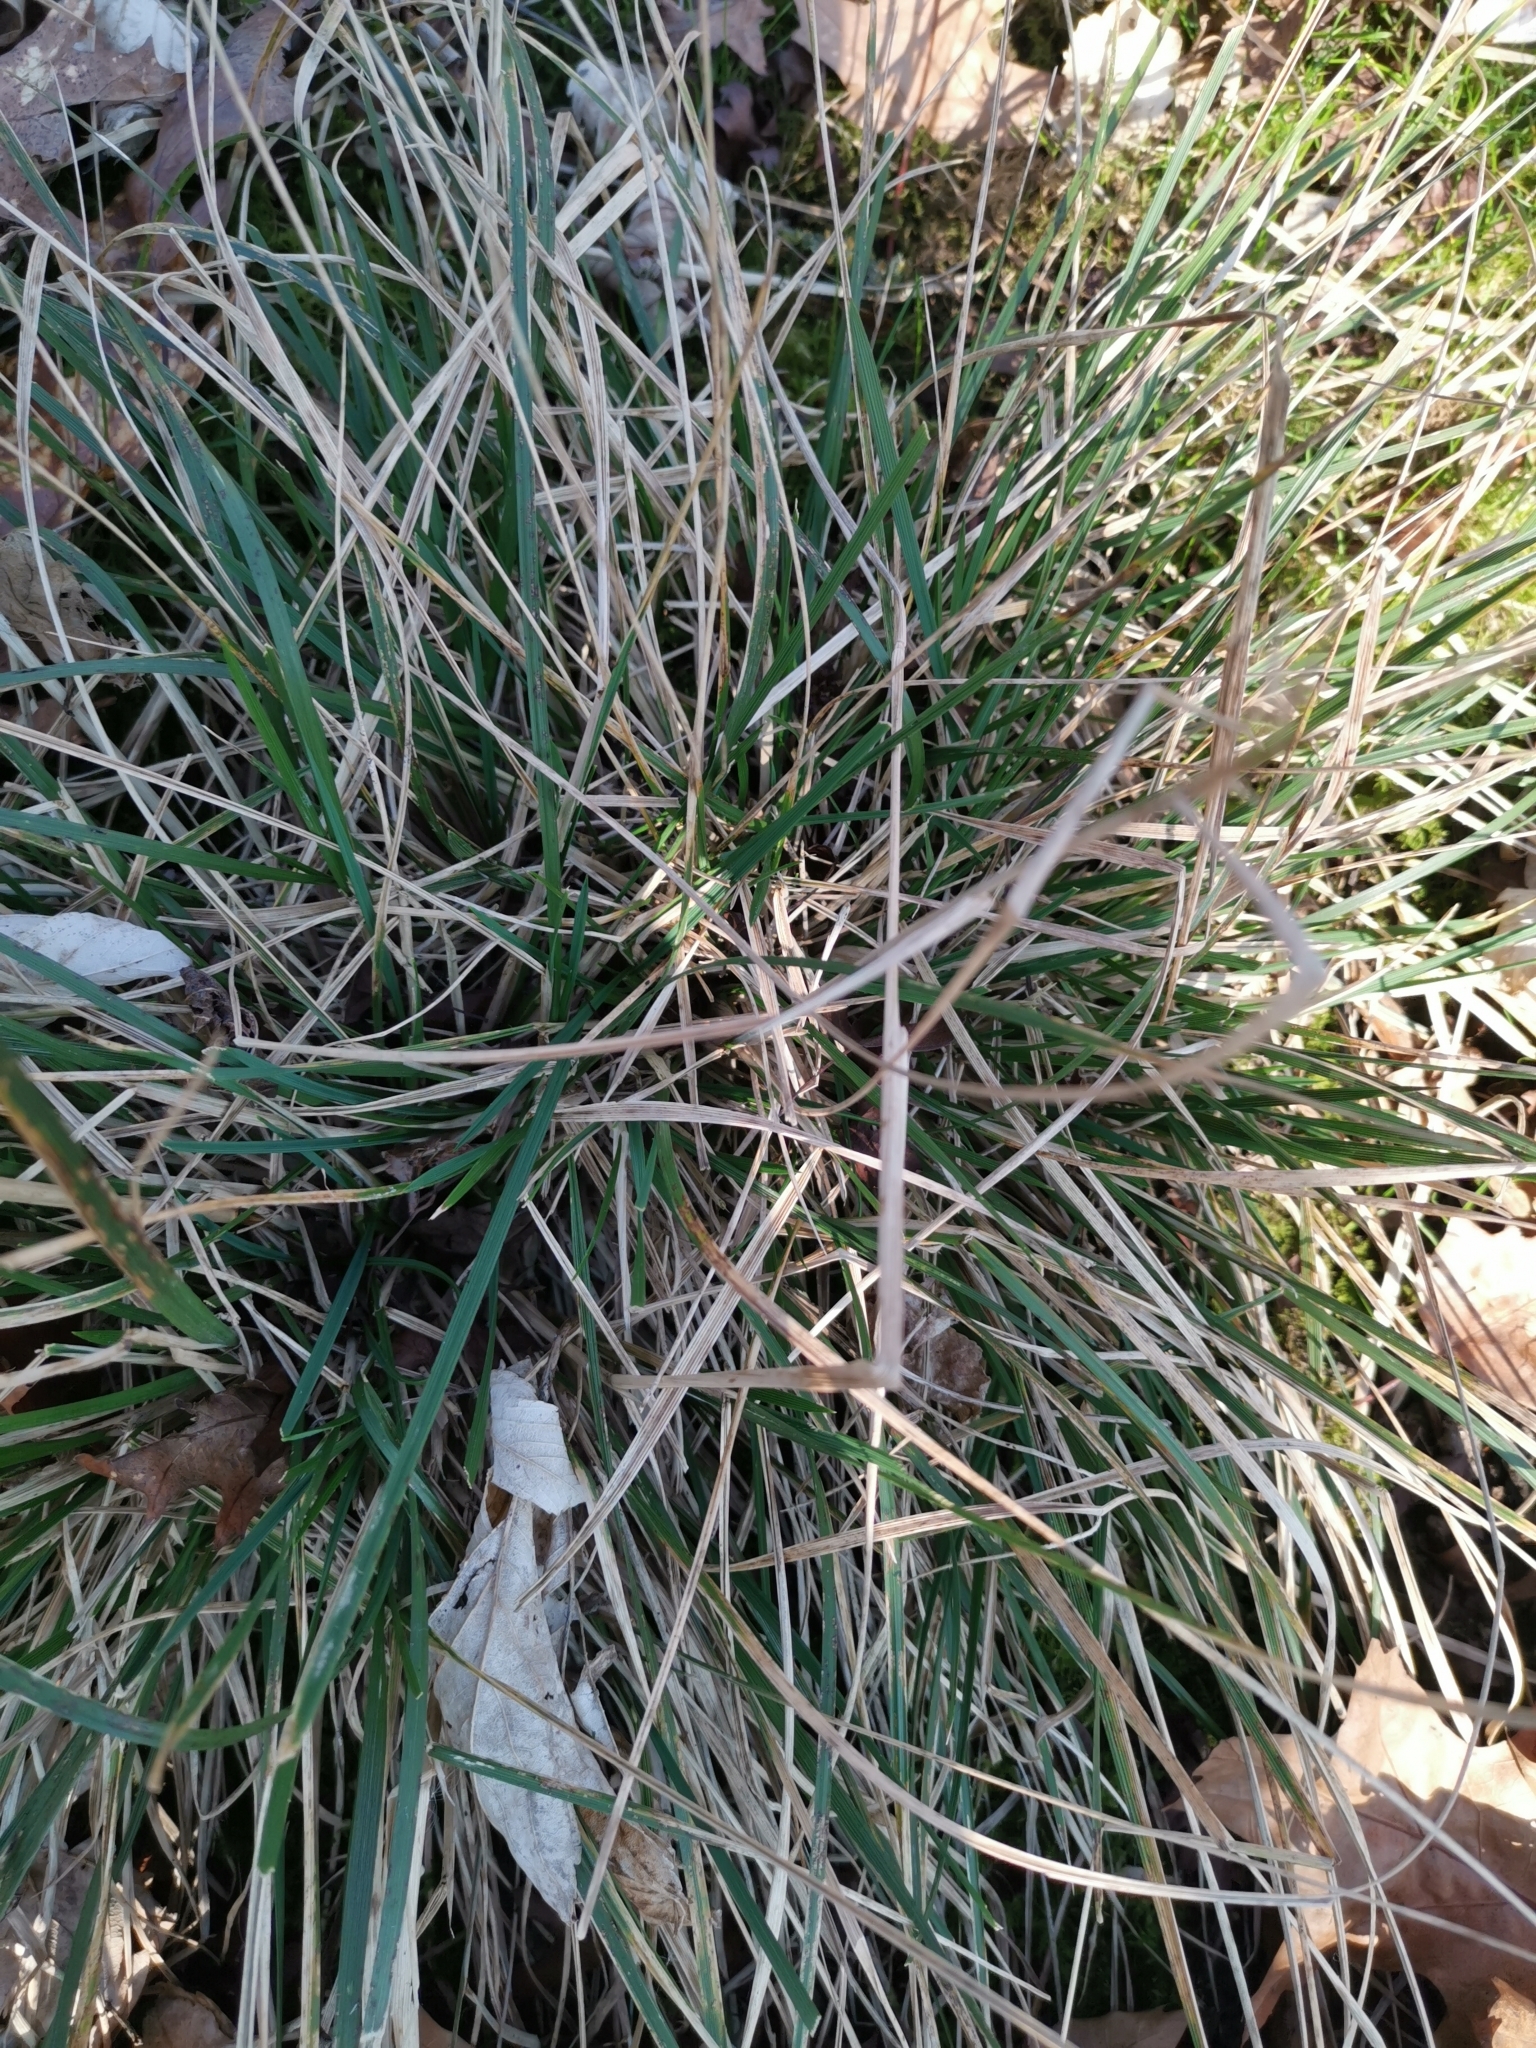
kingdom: Plantae
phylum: Tracheophyta
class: Liliopsida
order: Poales
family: Poaceae
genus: Deschampsia
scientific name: Deschampsia cespitosa
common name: Tufted hair-grass
